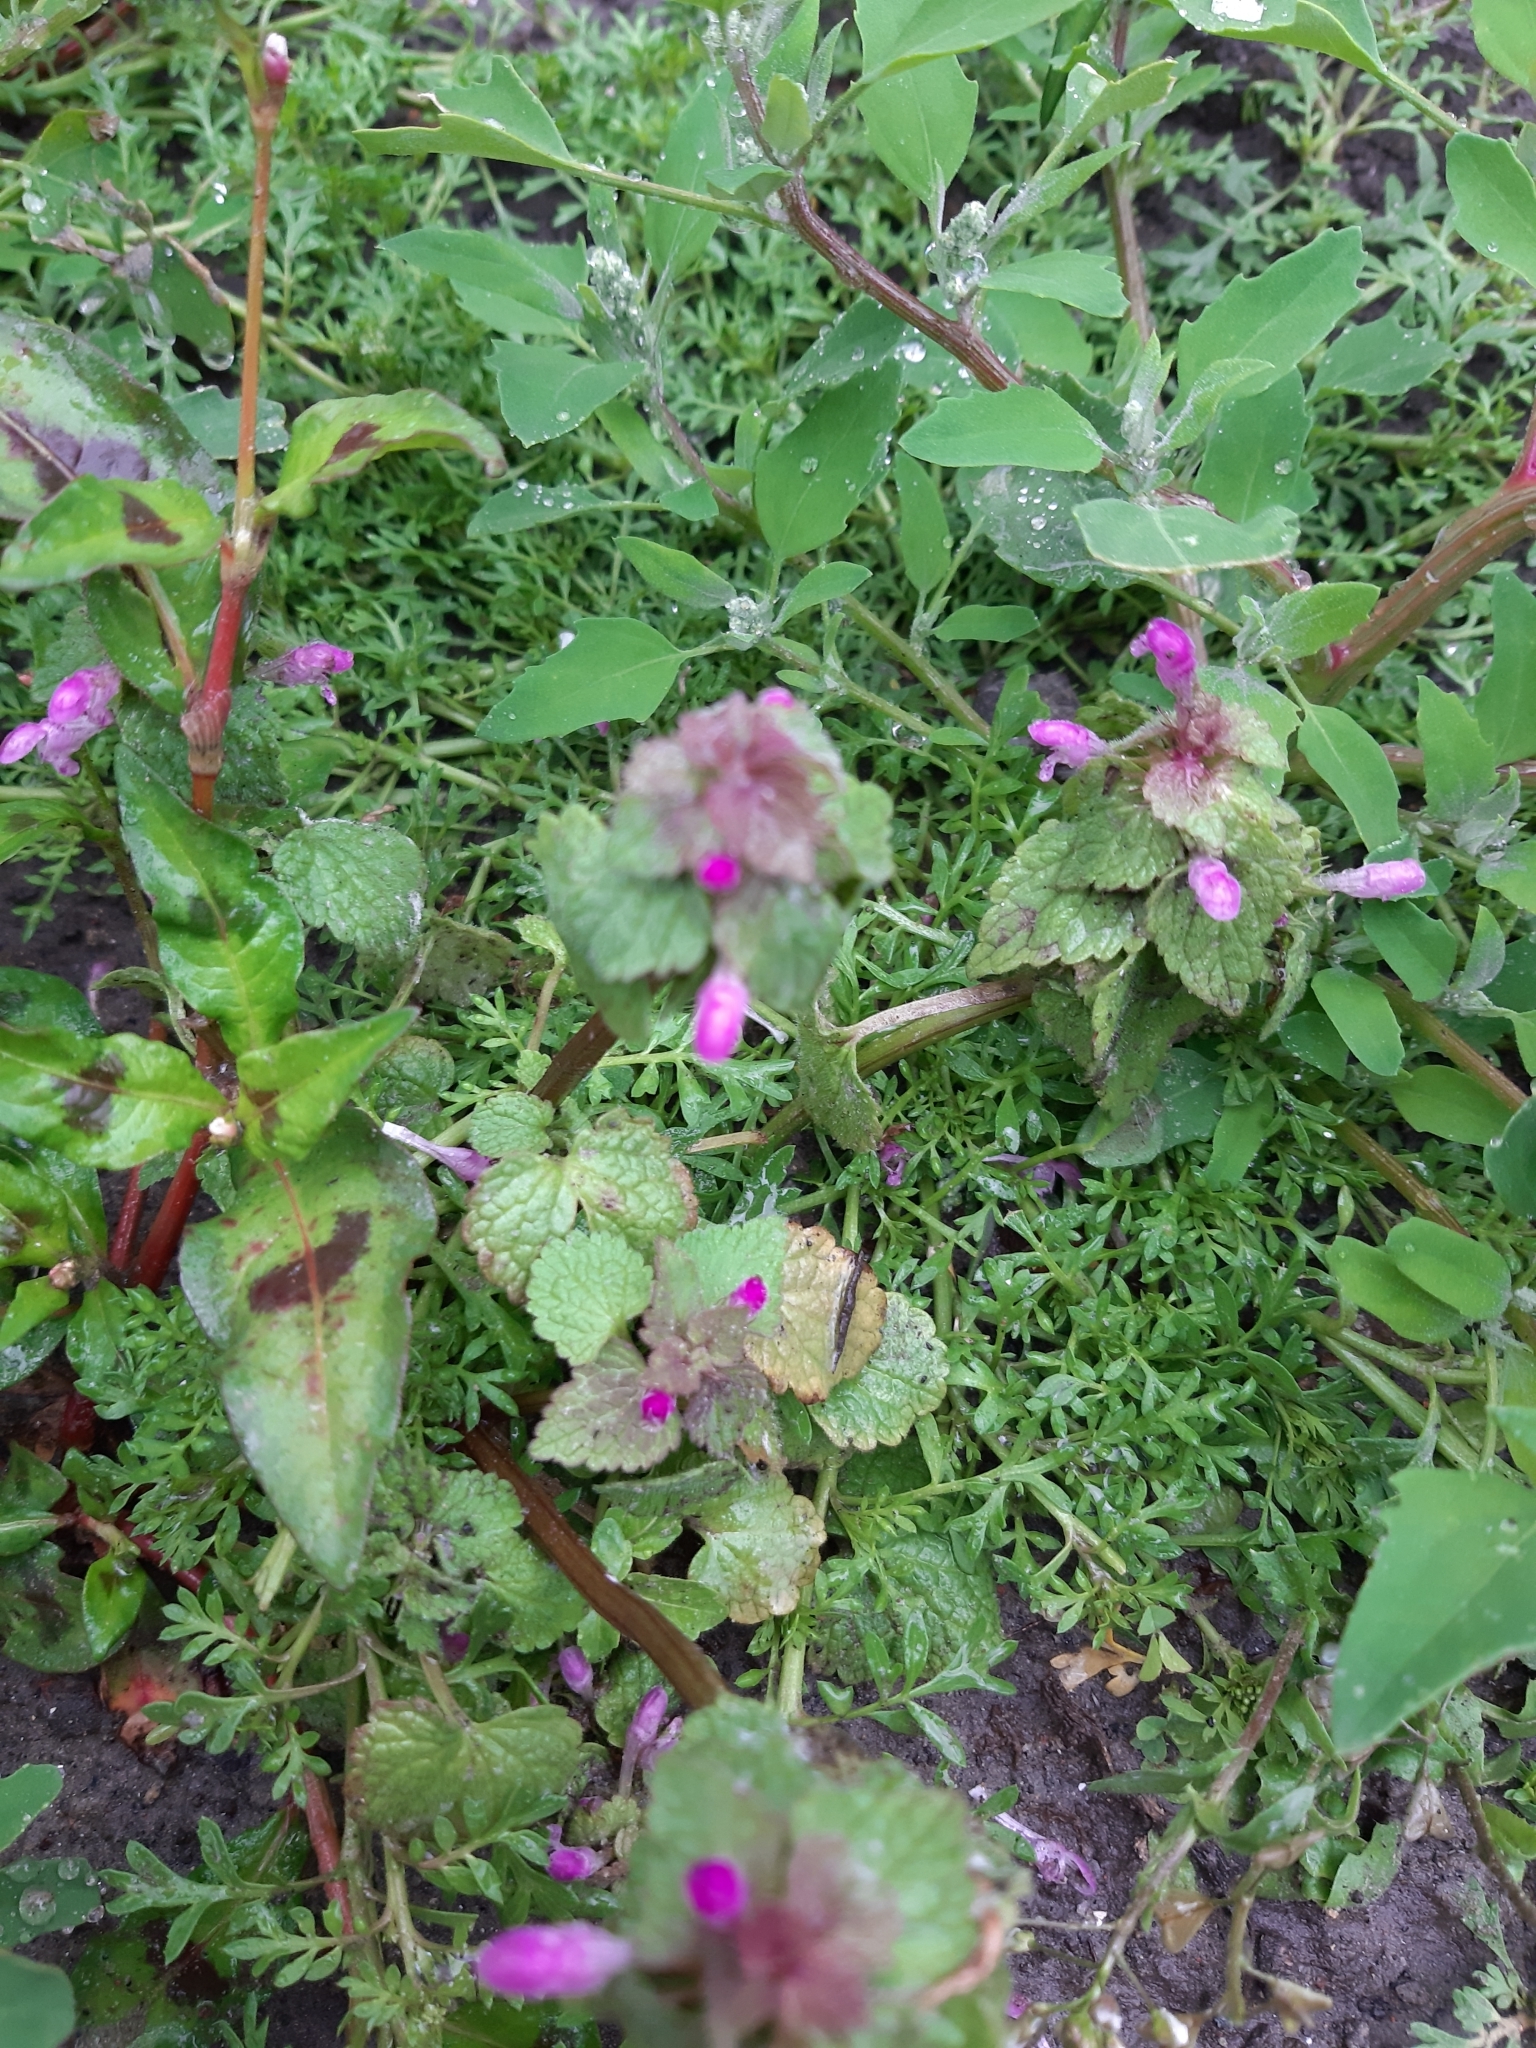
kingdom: Plantae
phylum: Tracheophyta
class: Magnoliopsida
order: Lamiales
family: Lamiaceae
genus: Lamium
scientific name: Lamium purpureum
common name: Red dead-nettle
